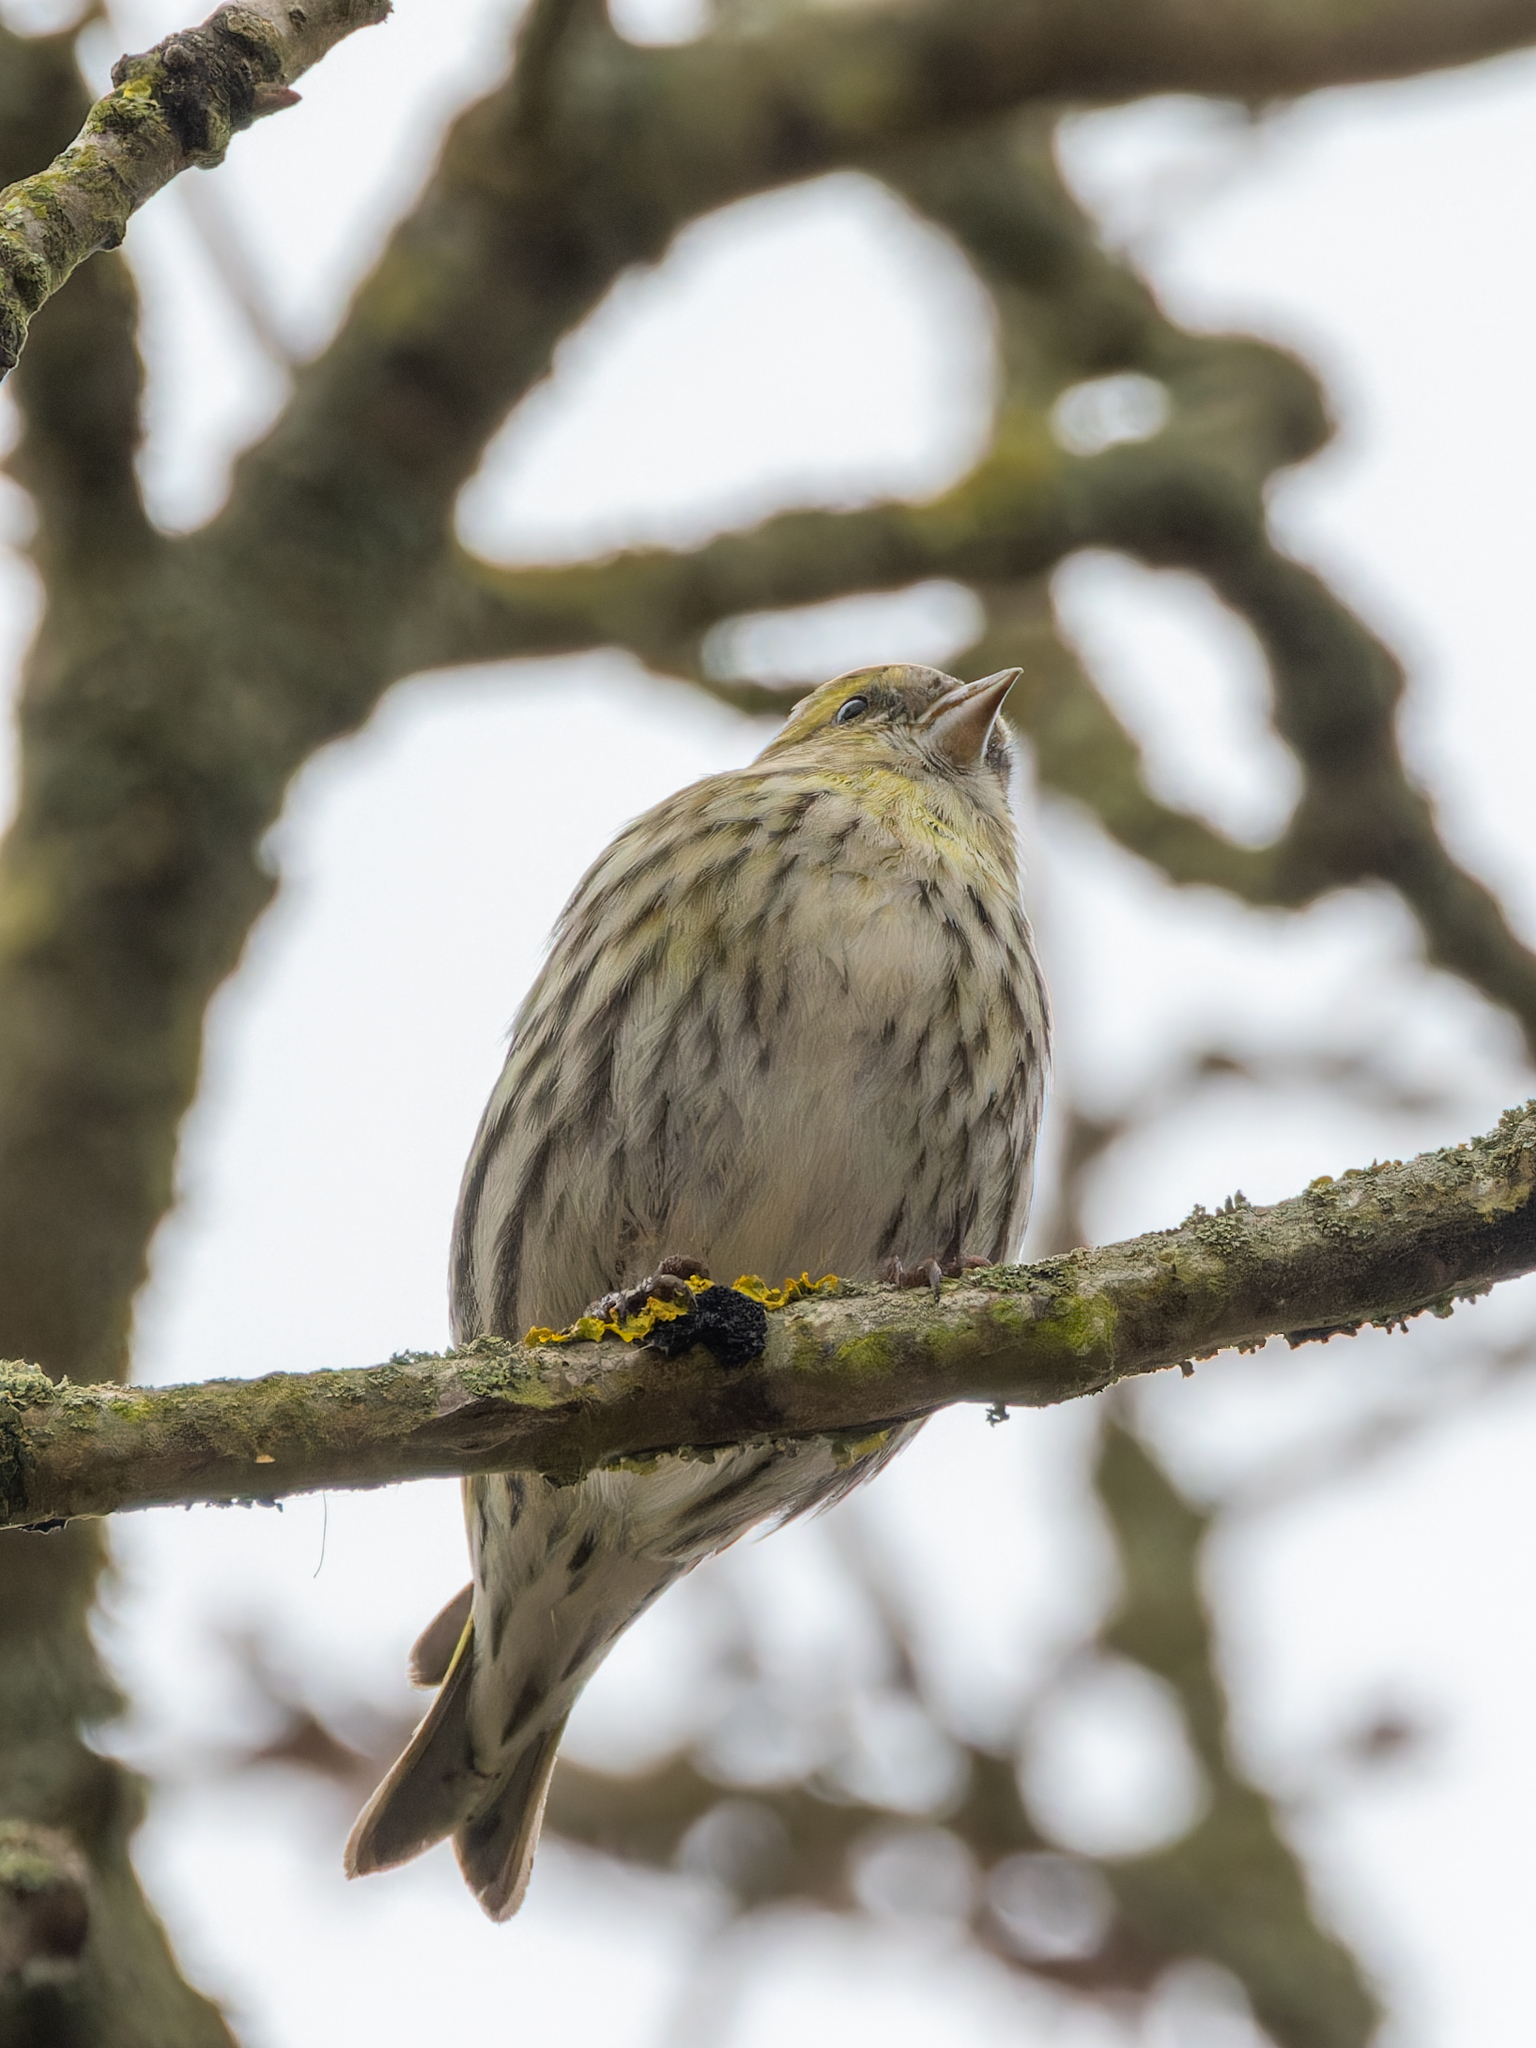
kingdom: Animalia
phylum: Chordata
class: Aves
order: Passeriformes
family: Fringillidae
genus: Spinus
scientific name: Spinus spinus
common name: Eurasian siskin
